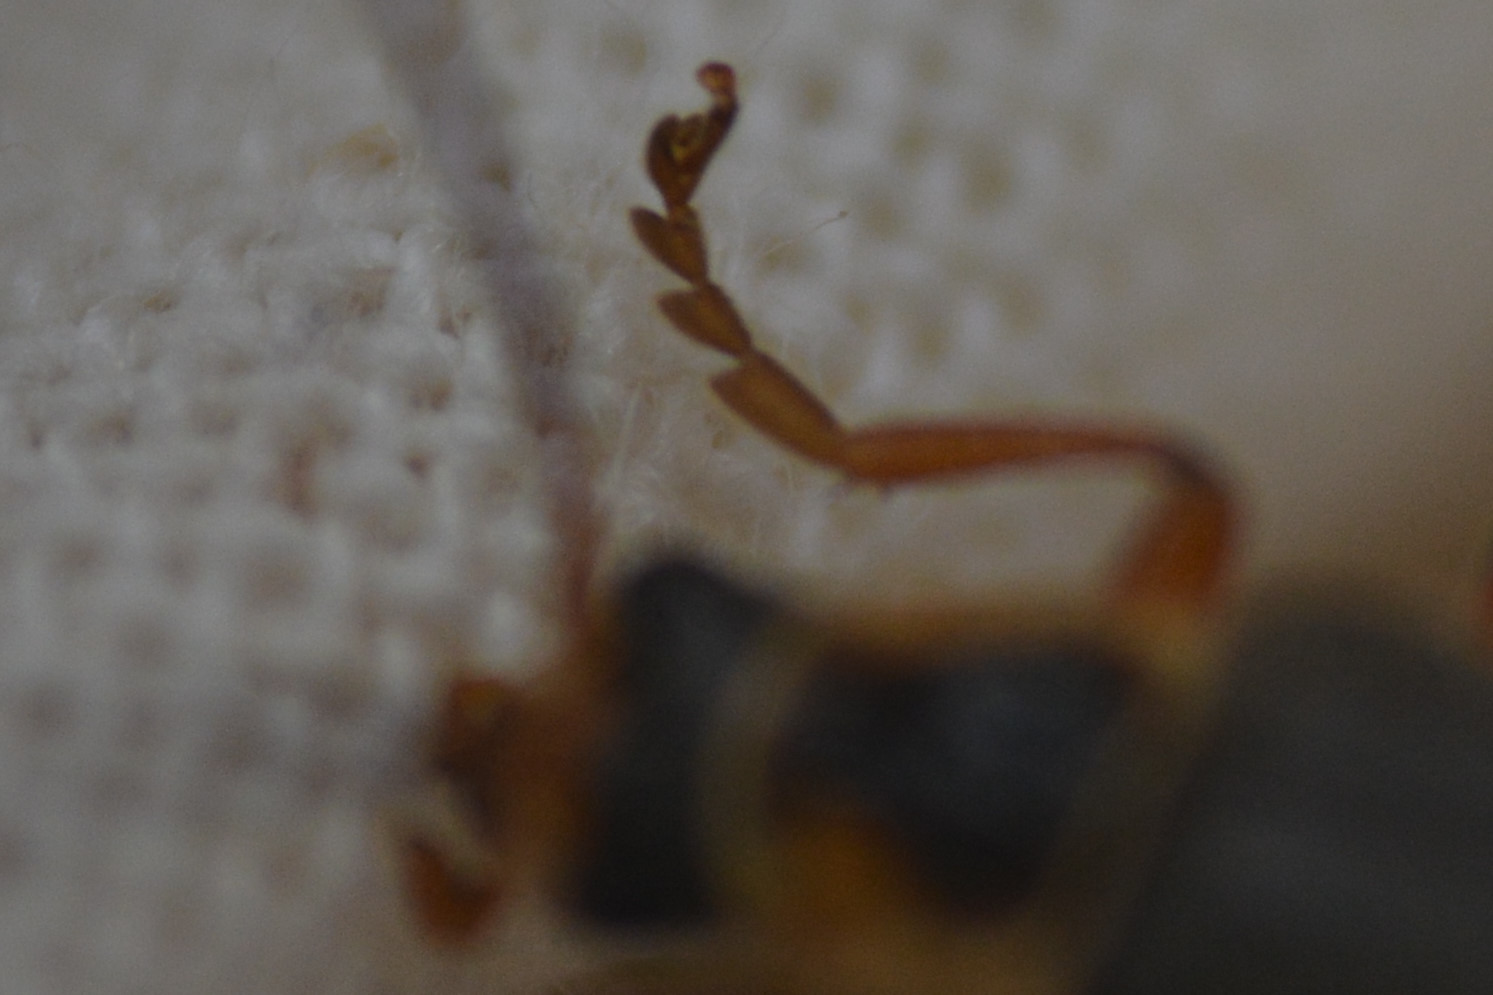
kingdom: Animalia
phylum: Arthropoda
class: Insecta
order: Coleoptera
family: Cantharidae
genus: Cantharis
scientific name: Cantharis nigricans
